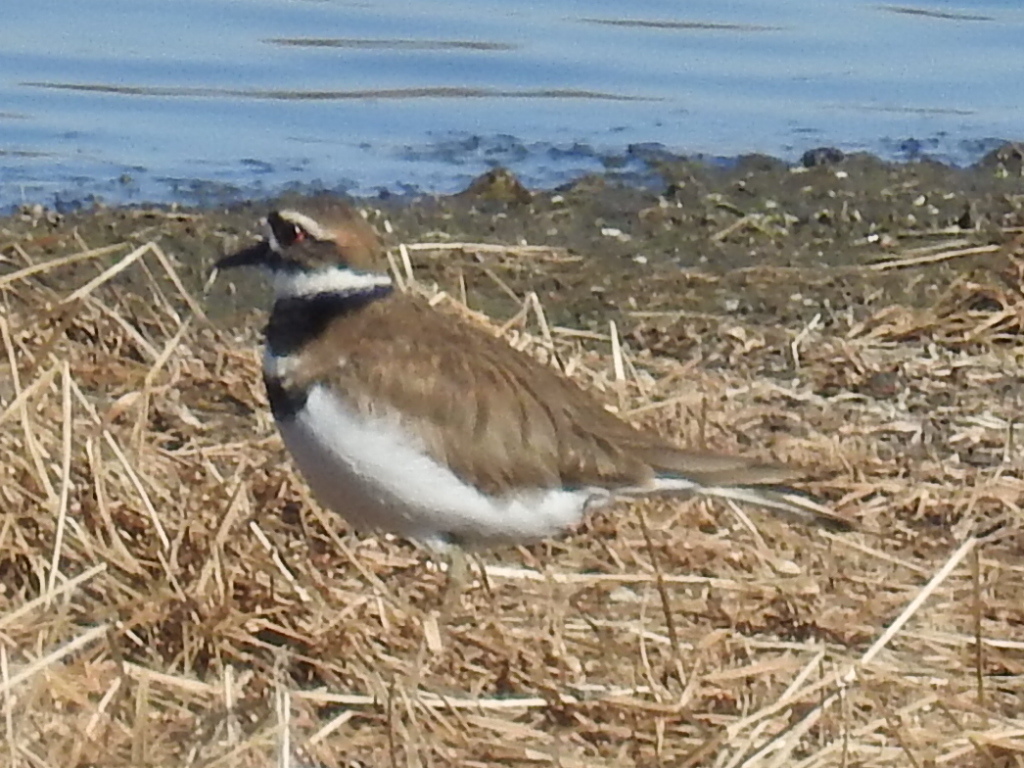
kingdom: Animalia
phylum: Chordata
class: Aves
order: Charadriiformes
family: Charadriidae
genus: Charadrius
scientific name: Charadrius vociferus
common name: Killdeer
